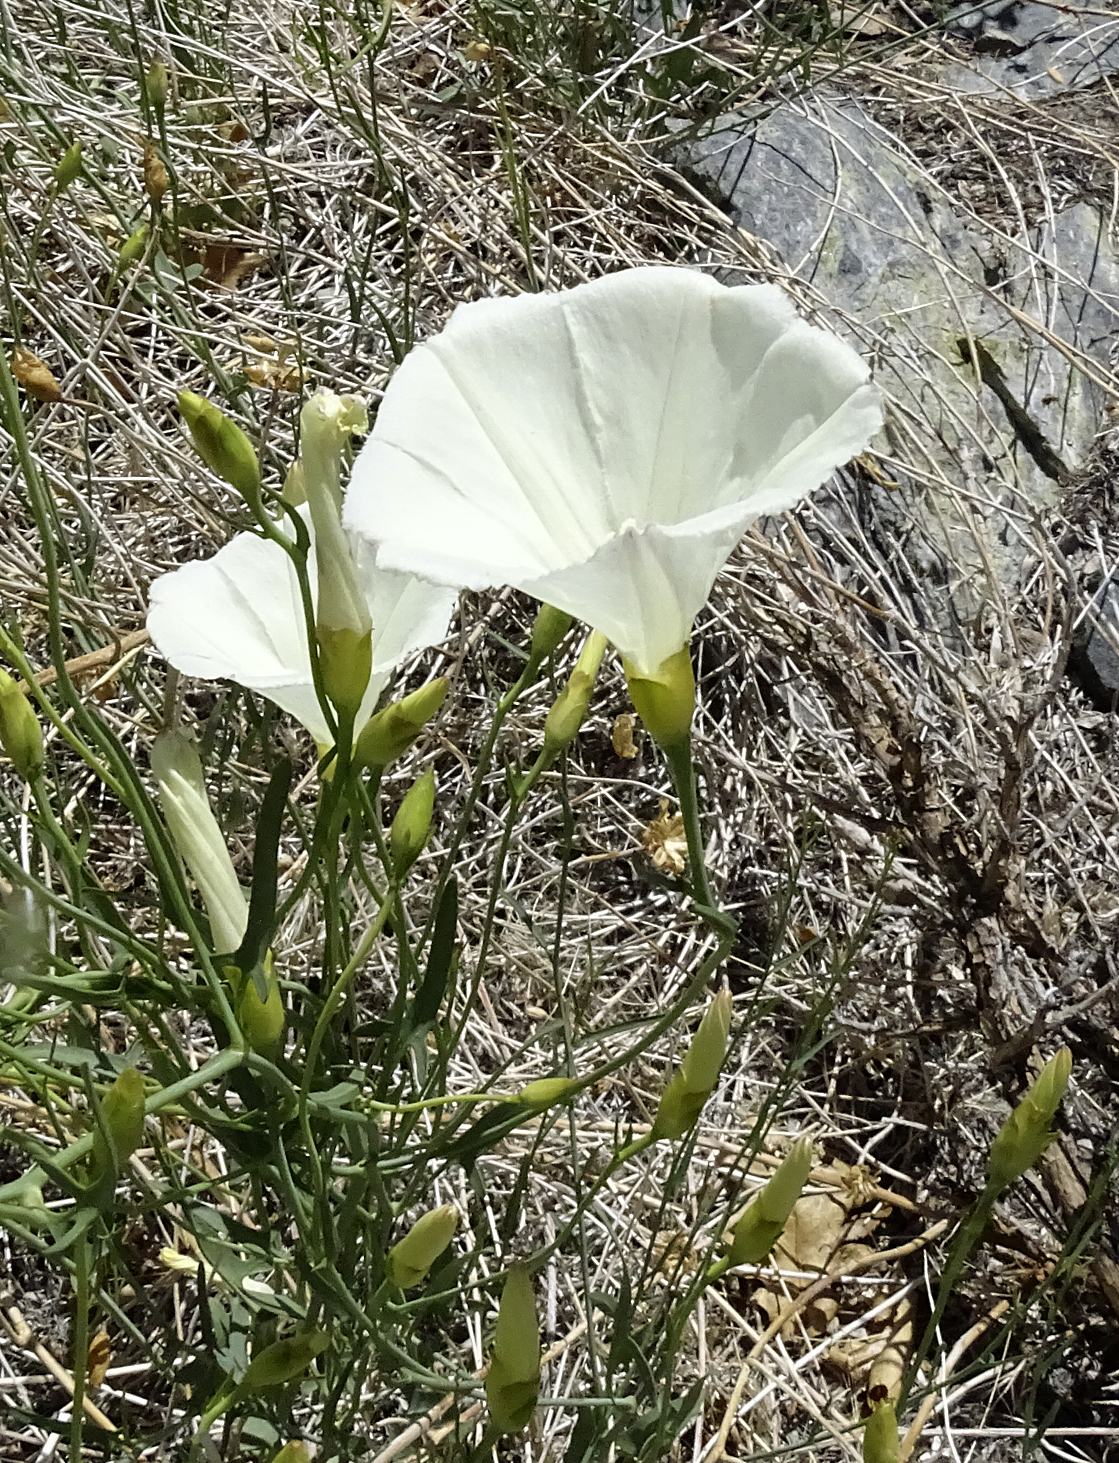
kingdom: Plantae
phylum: Tracheophyta
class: Magnoliopsida
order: Solanales
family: Convolvulaceae
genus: Calystegia
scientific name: Calystegia longipes
